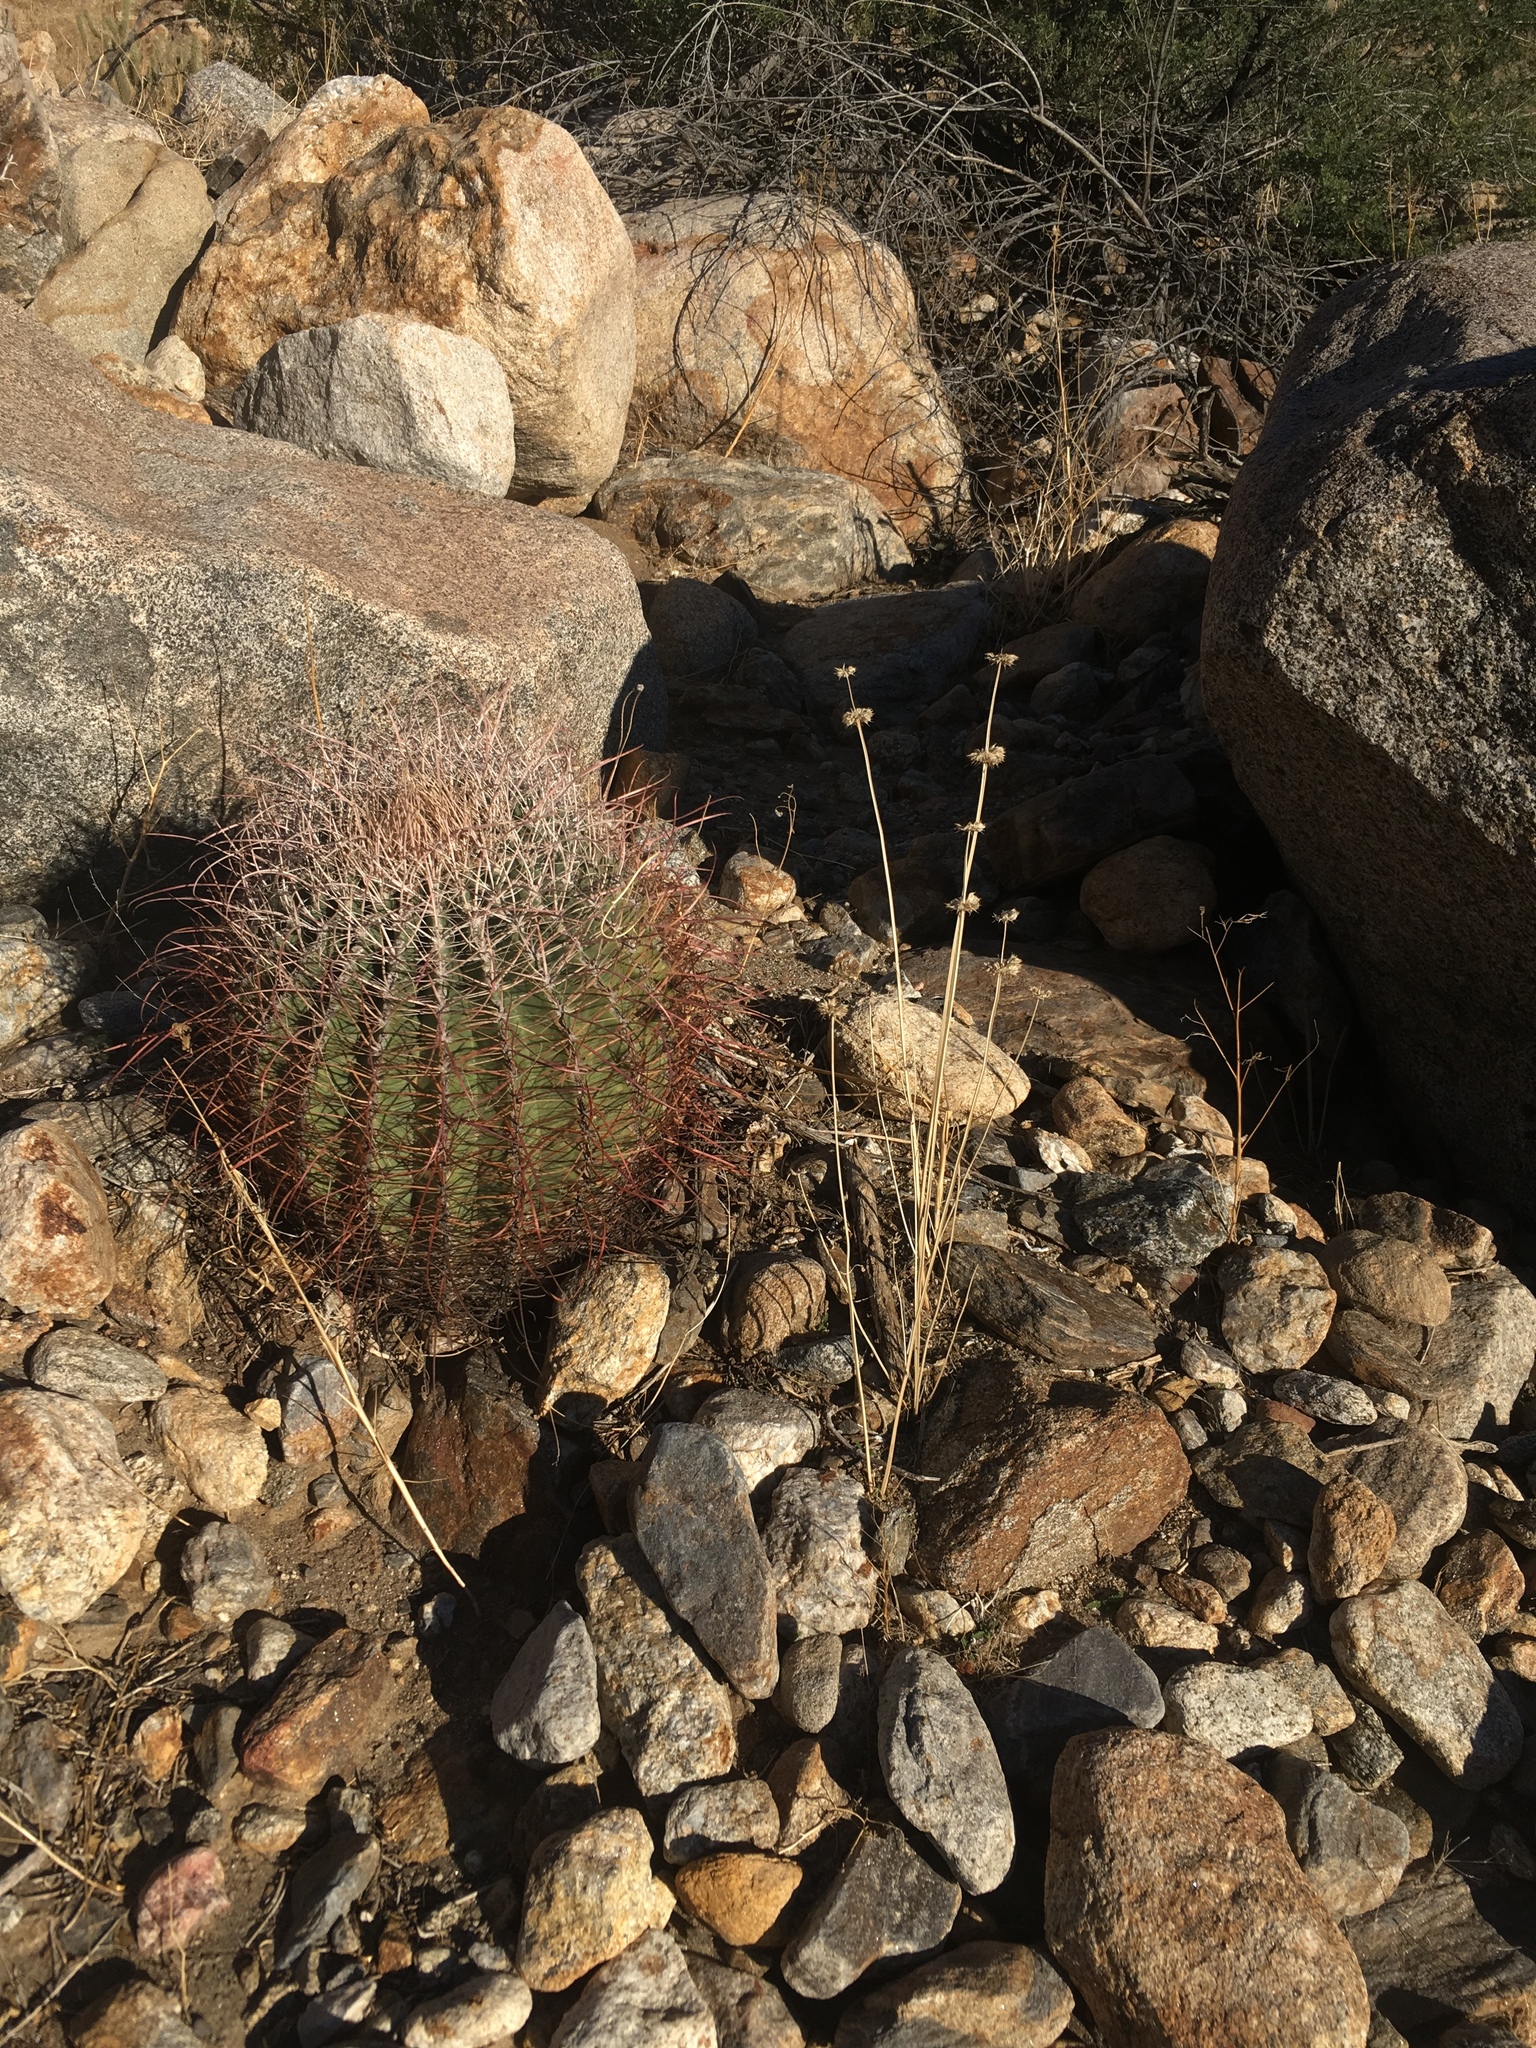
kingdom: Plantae
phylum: Tracheophyta
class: Magnoliopsida
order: Caryophyllales
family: Cactaceae
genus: Ferocactus
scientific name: Ferocactus cylindraceus
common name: California barrel cactus
